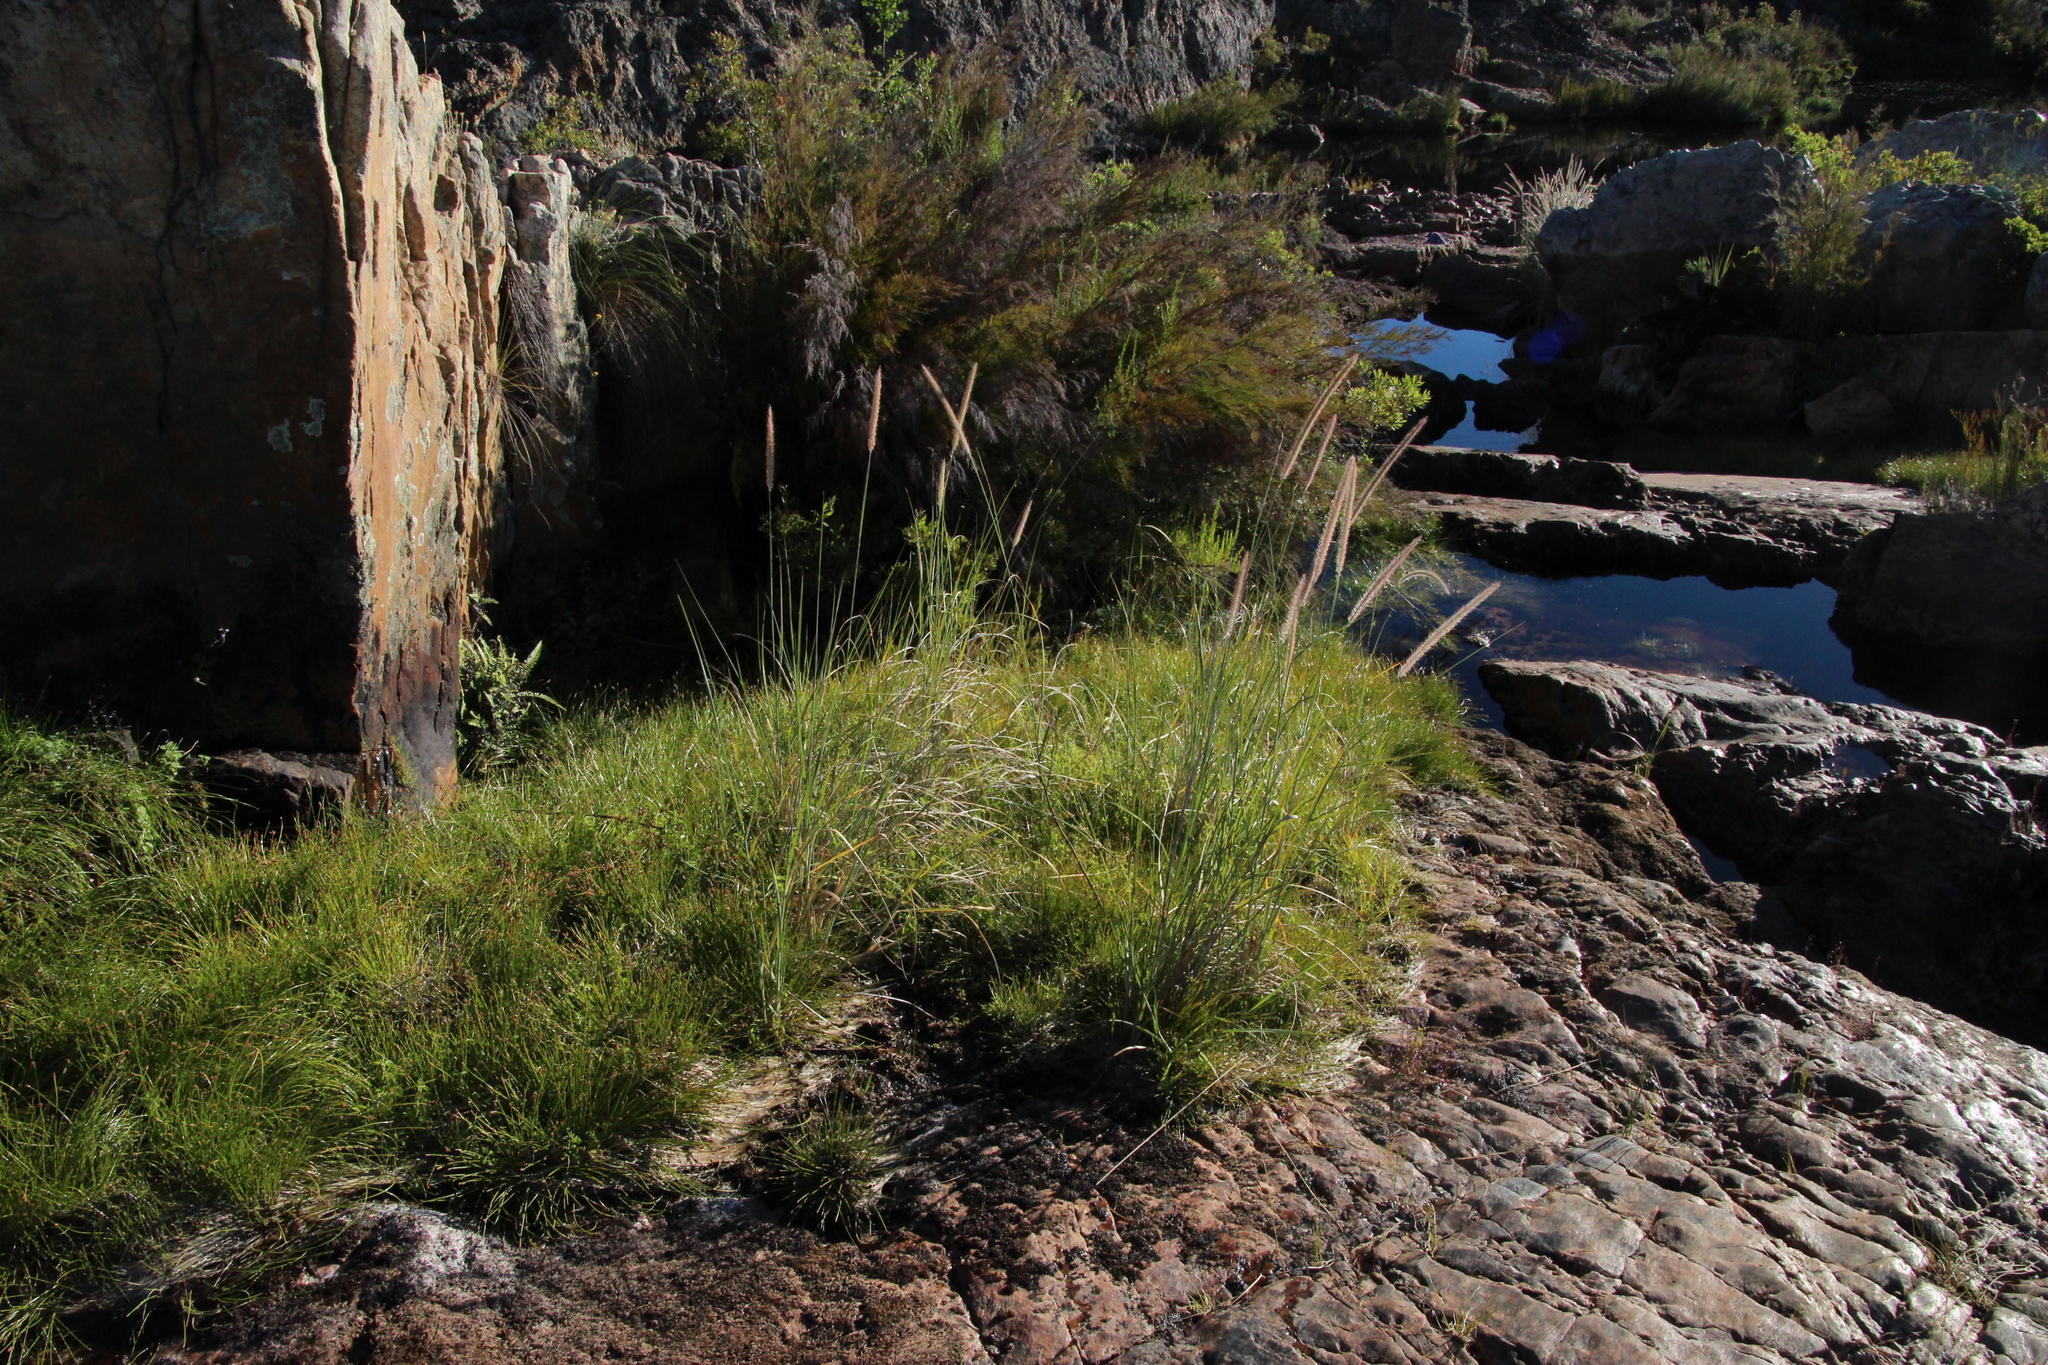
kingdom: Plantae
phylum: Tracheophyta
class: Liliopsida
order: Poales
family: Poaceae
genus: Cenchrus
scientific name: Cenchrus caudatus
